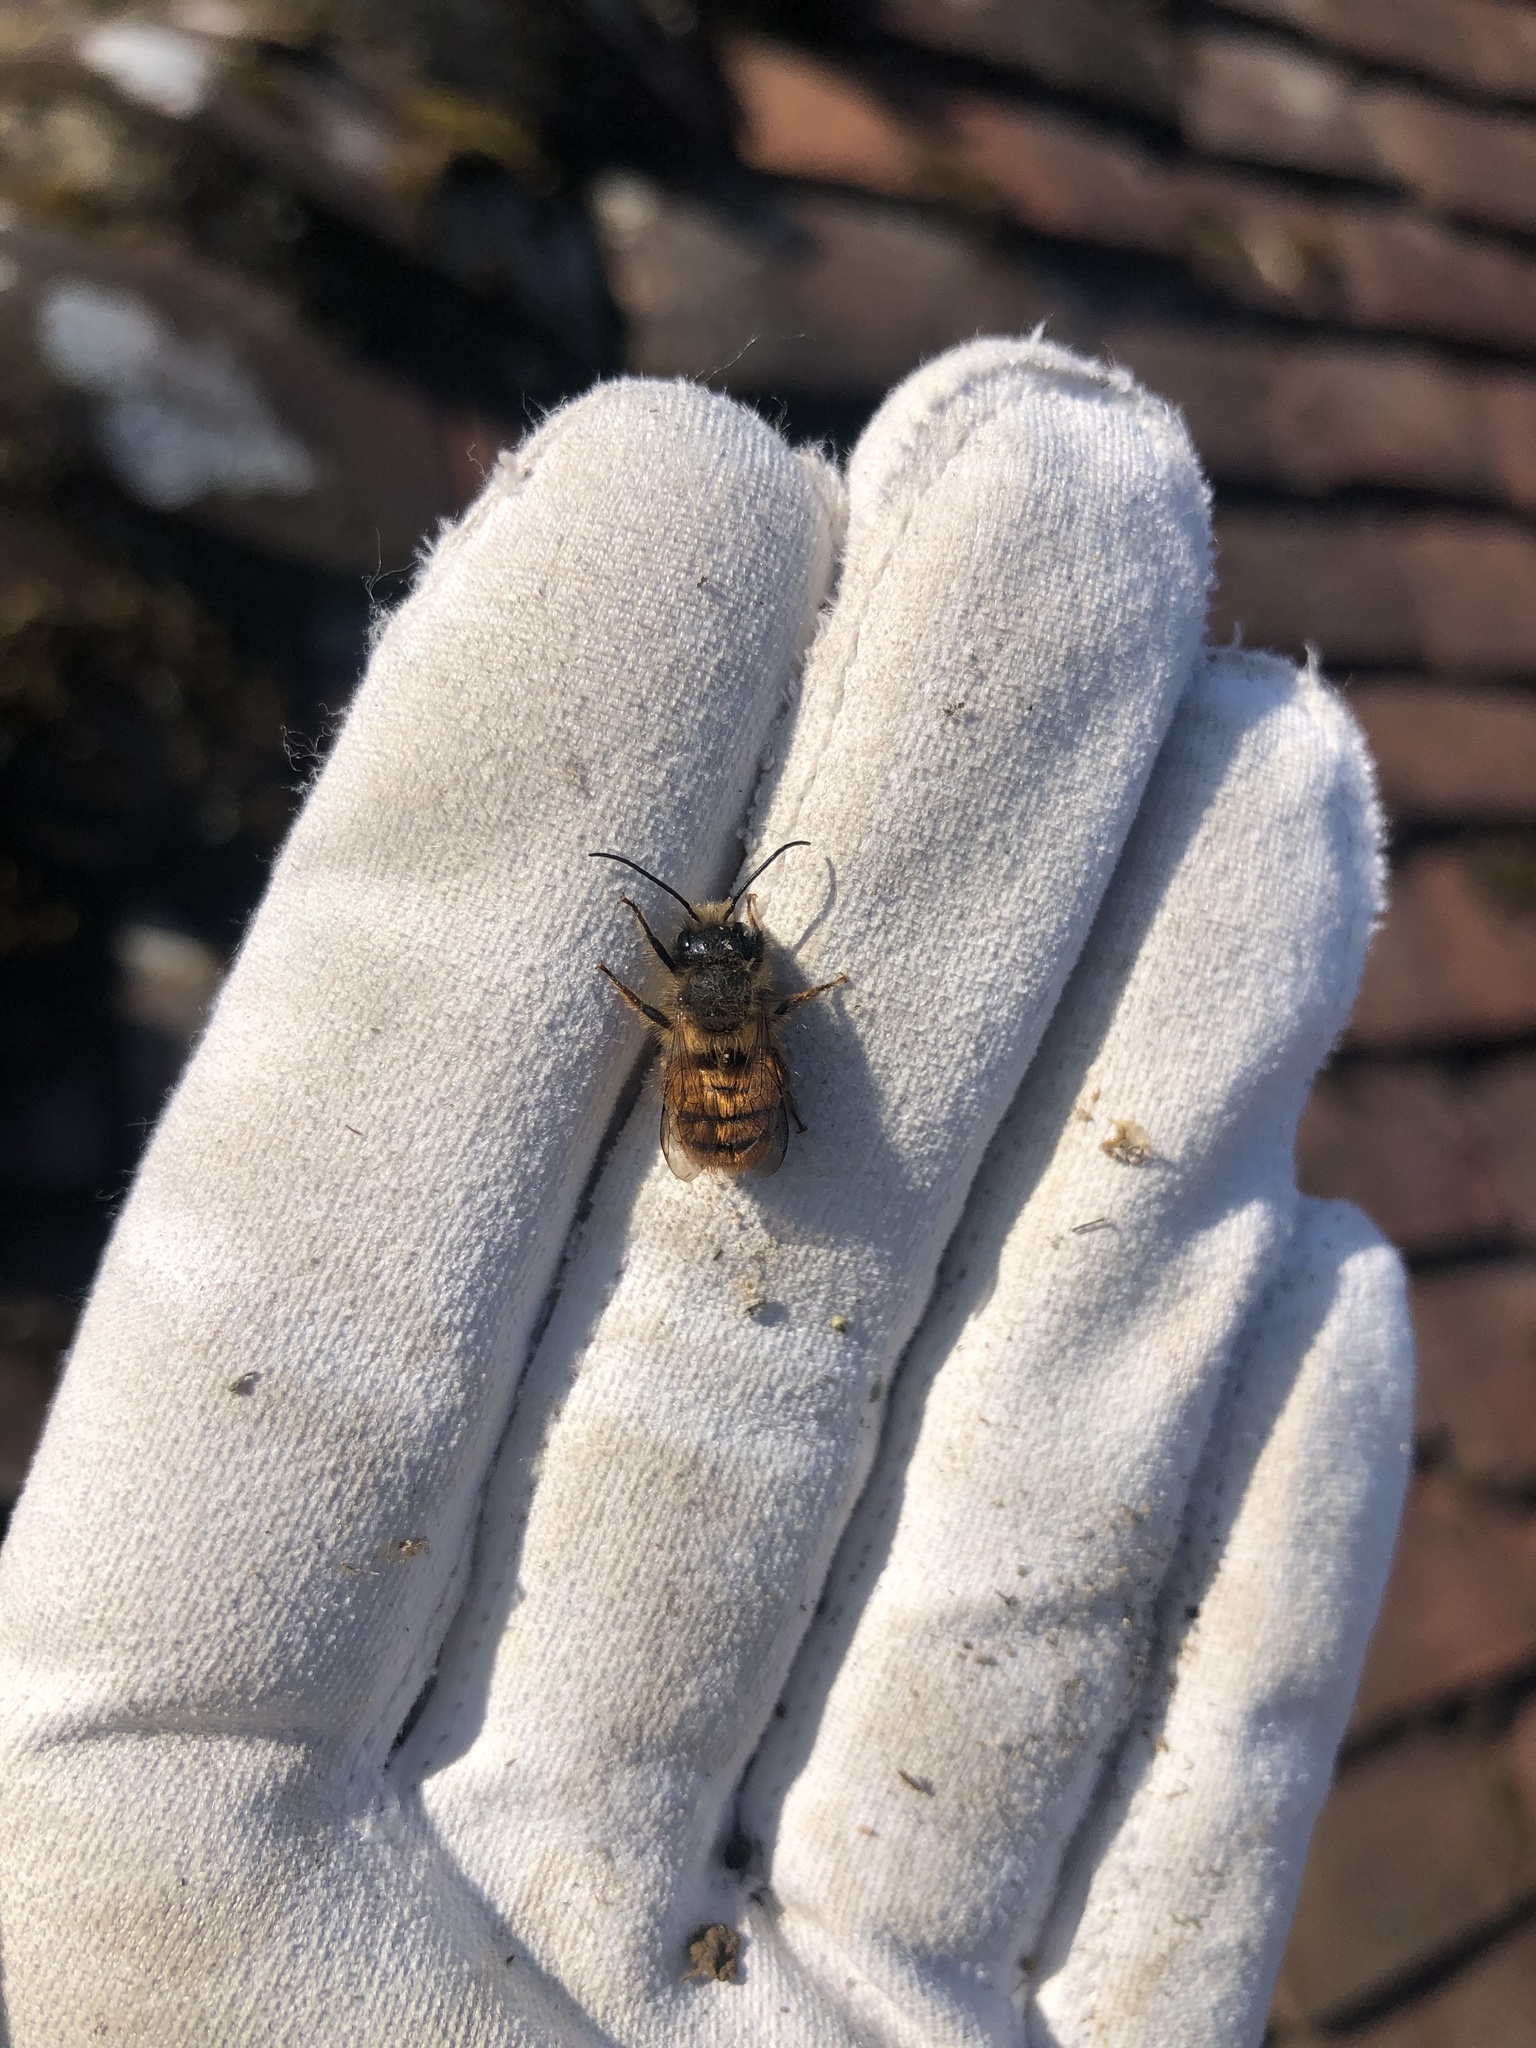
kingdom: Animalia
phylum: Arthropoda
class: Insecta
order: Hymenoptera
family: Megachilidae
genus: Osmia
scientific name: Osmia bicornis
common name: Red mason bee
